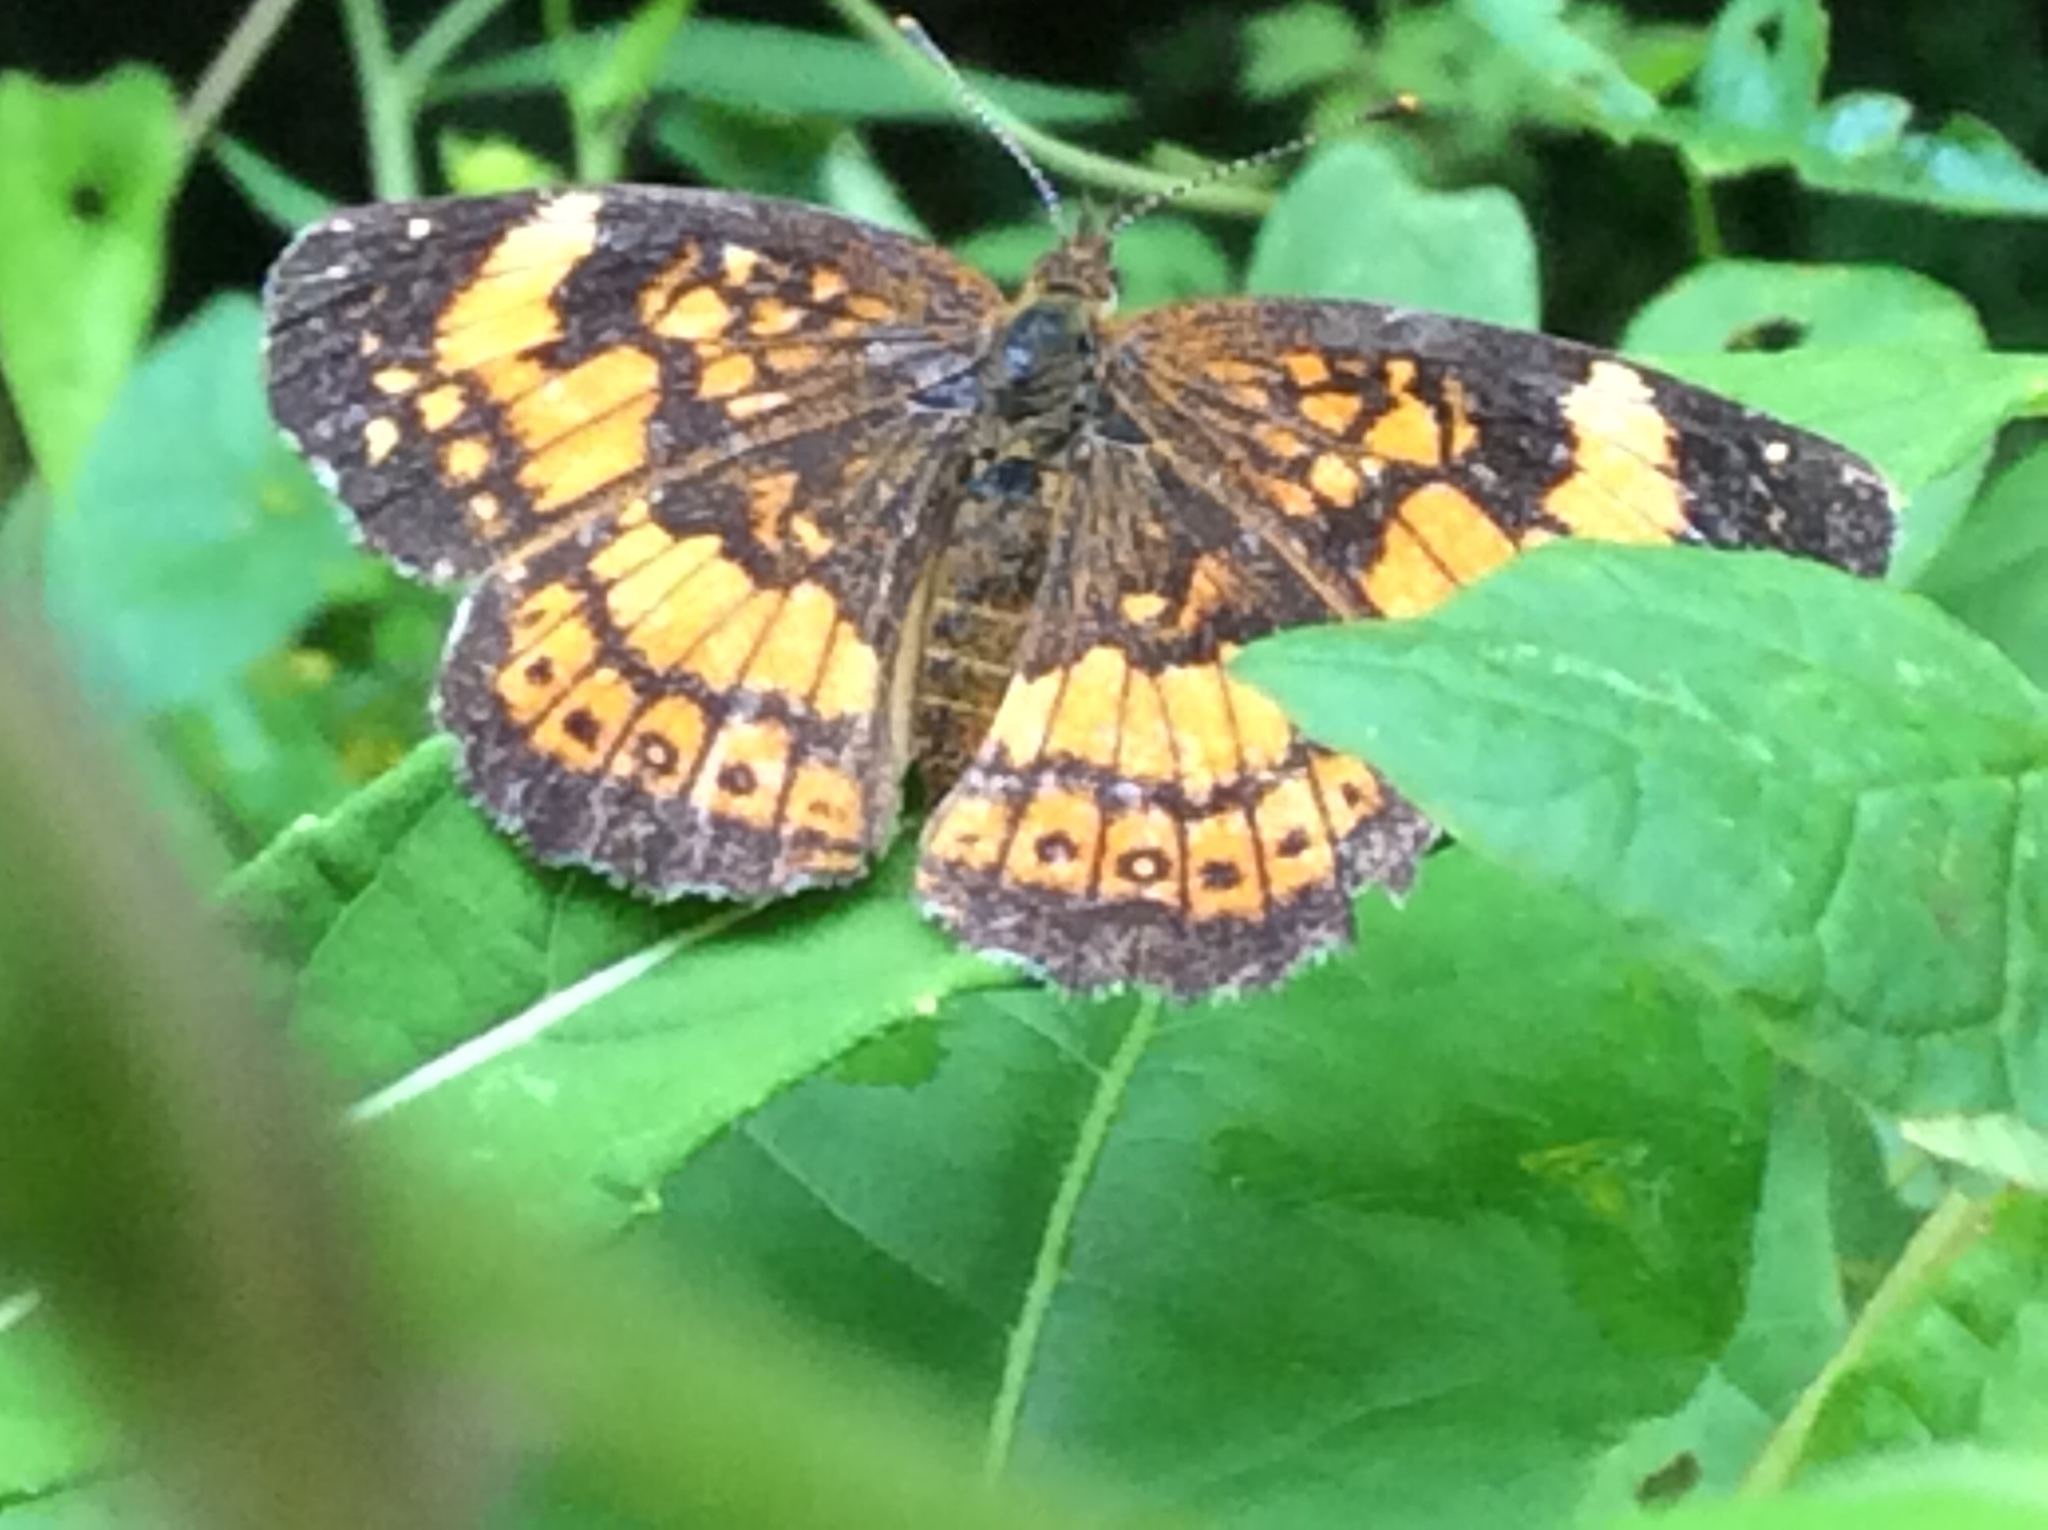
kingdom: Animalia
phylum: Arthropoda
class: Insecta
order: Lepidoptera
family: Nymphalidae
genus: Chlosyne
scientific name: Chlosyne nycteis
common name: Silvery checkerspot
